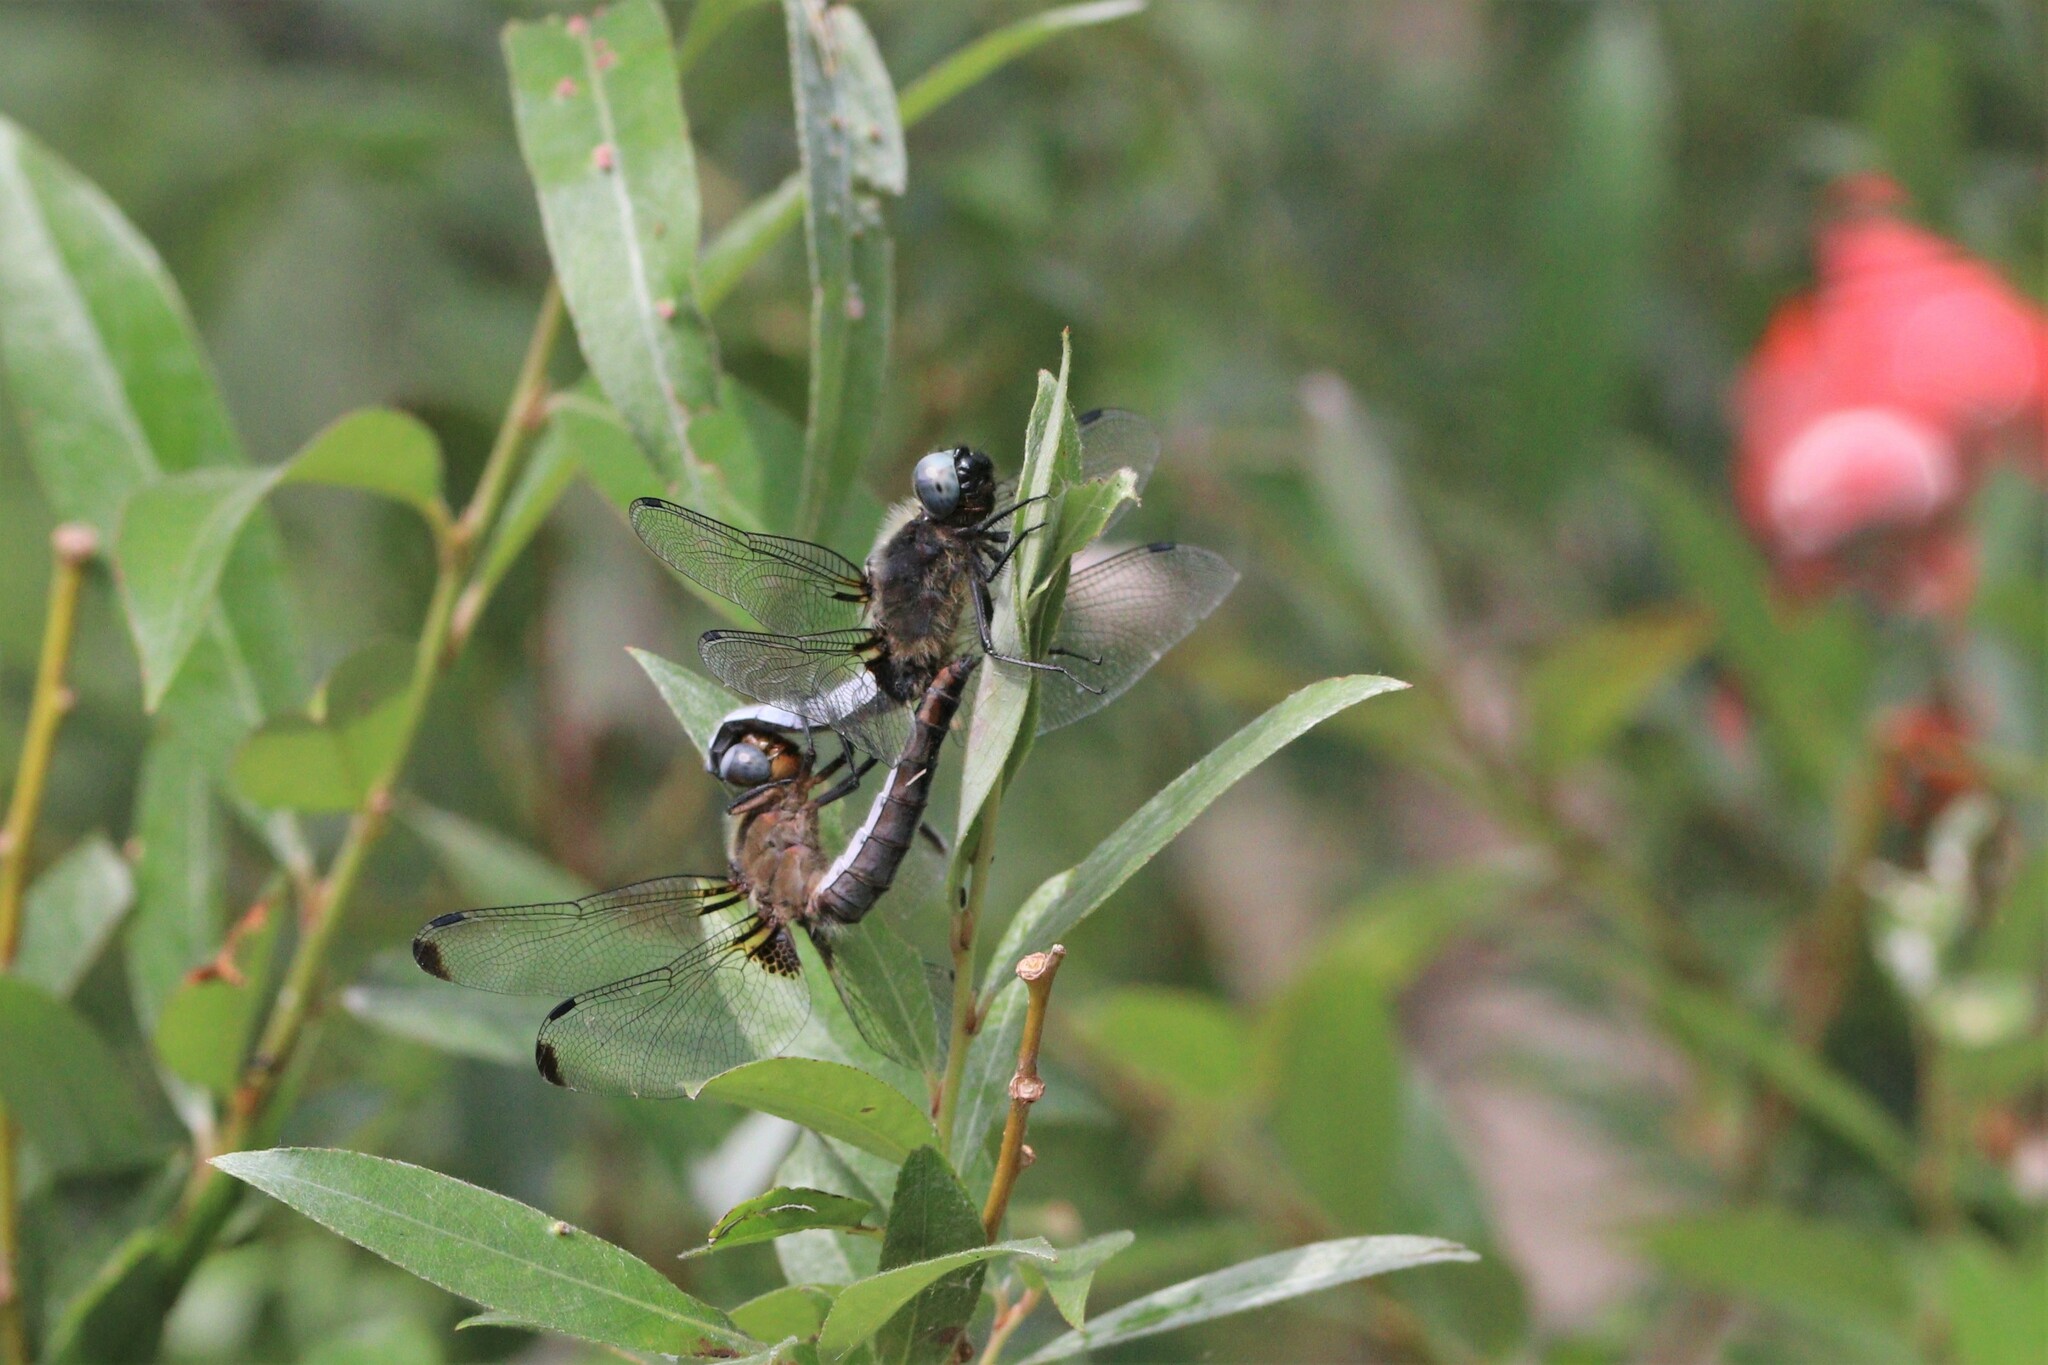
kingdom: Animalia
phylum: Arthropoda
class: Insecta
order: Odonata
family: Libellulidae
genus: Libellula
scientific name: Libellula fulva
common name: Blue chaser
